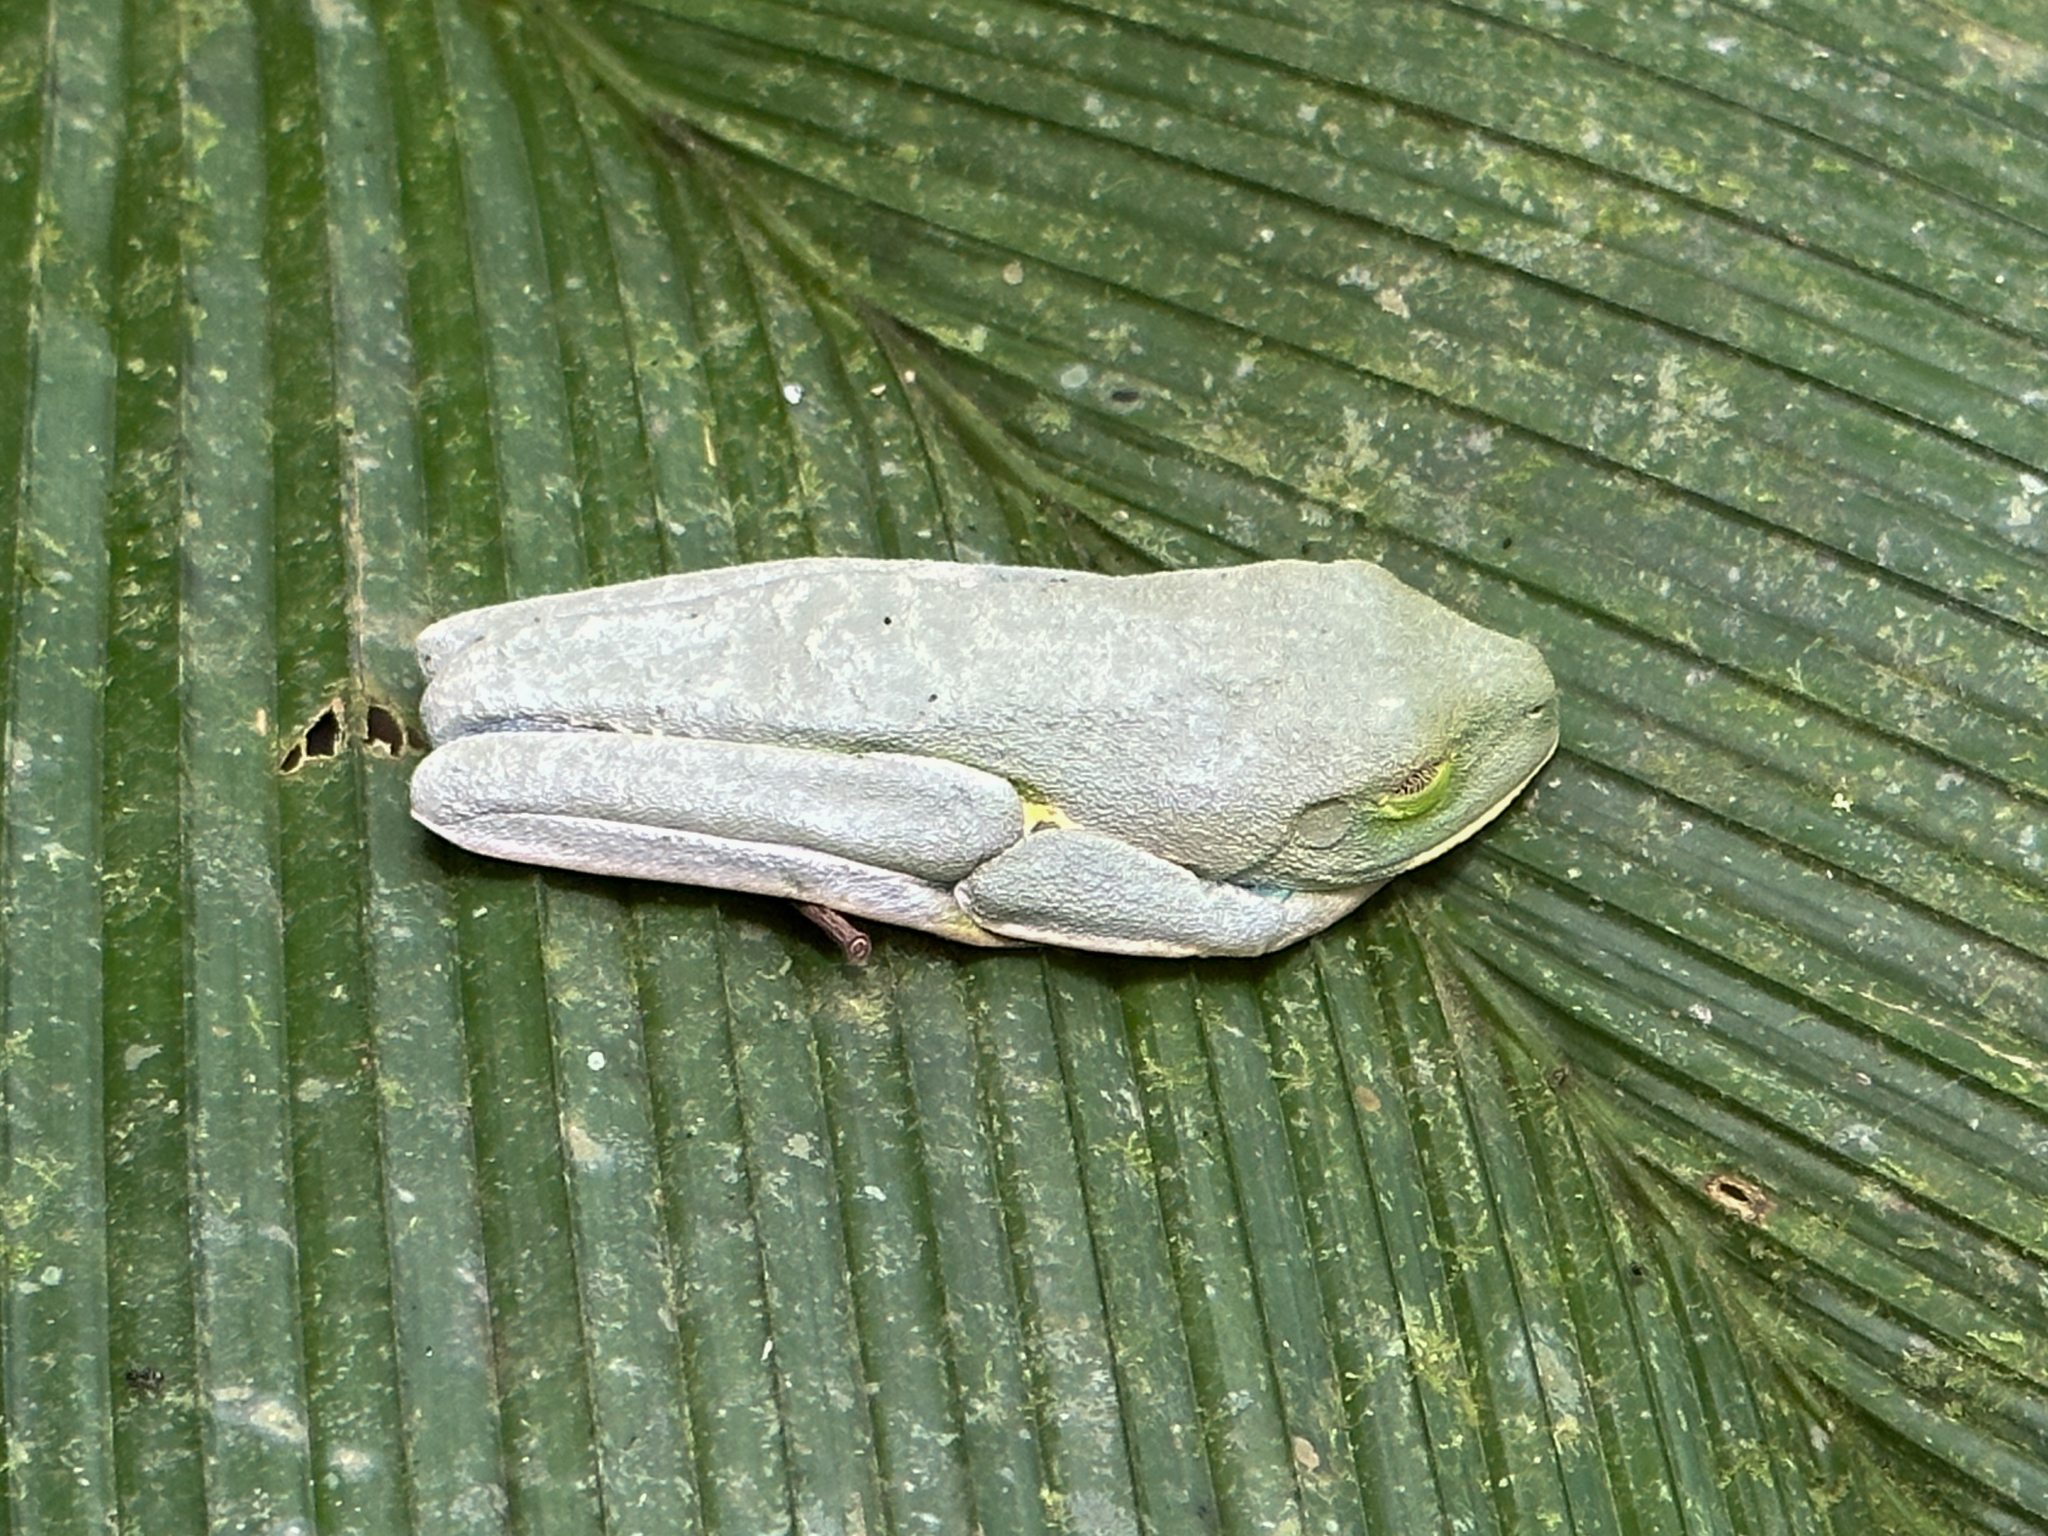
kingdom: Animalia
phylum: Chordata
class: Amphibia
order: Anura
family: Phyllomedusidae
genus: Agalychnis
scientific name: Agalychnis callidryas
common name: Red-eyed treefrog
